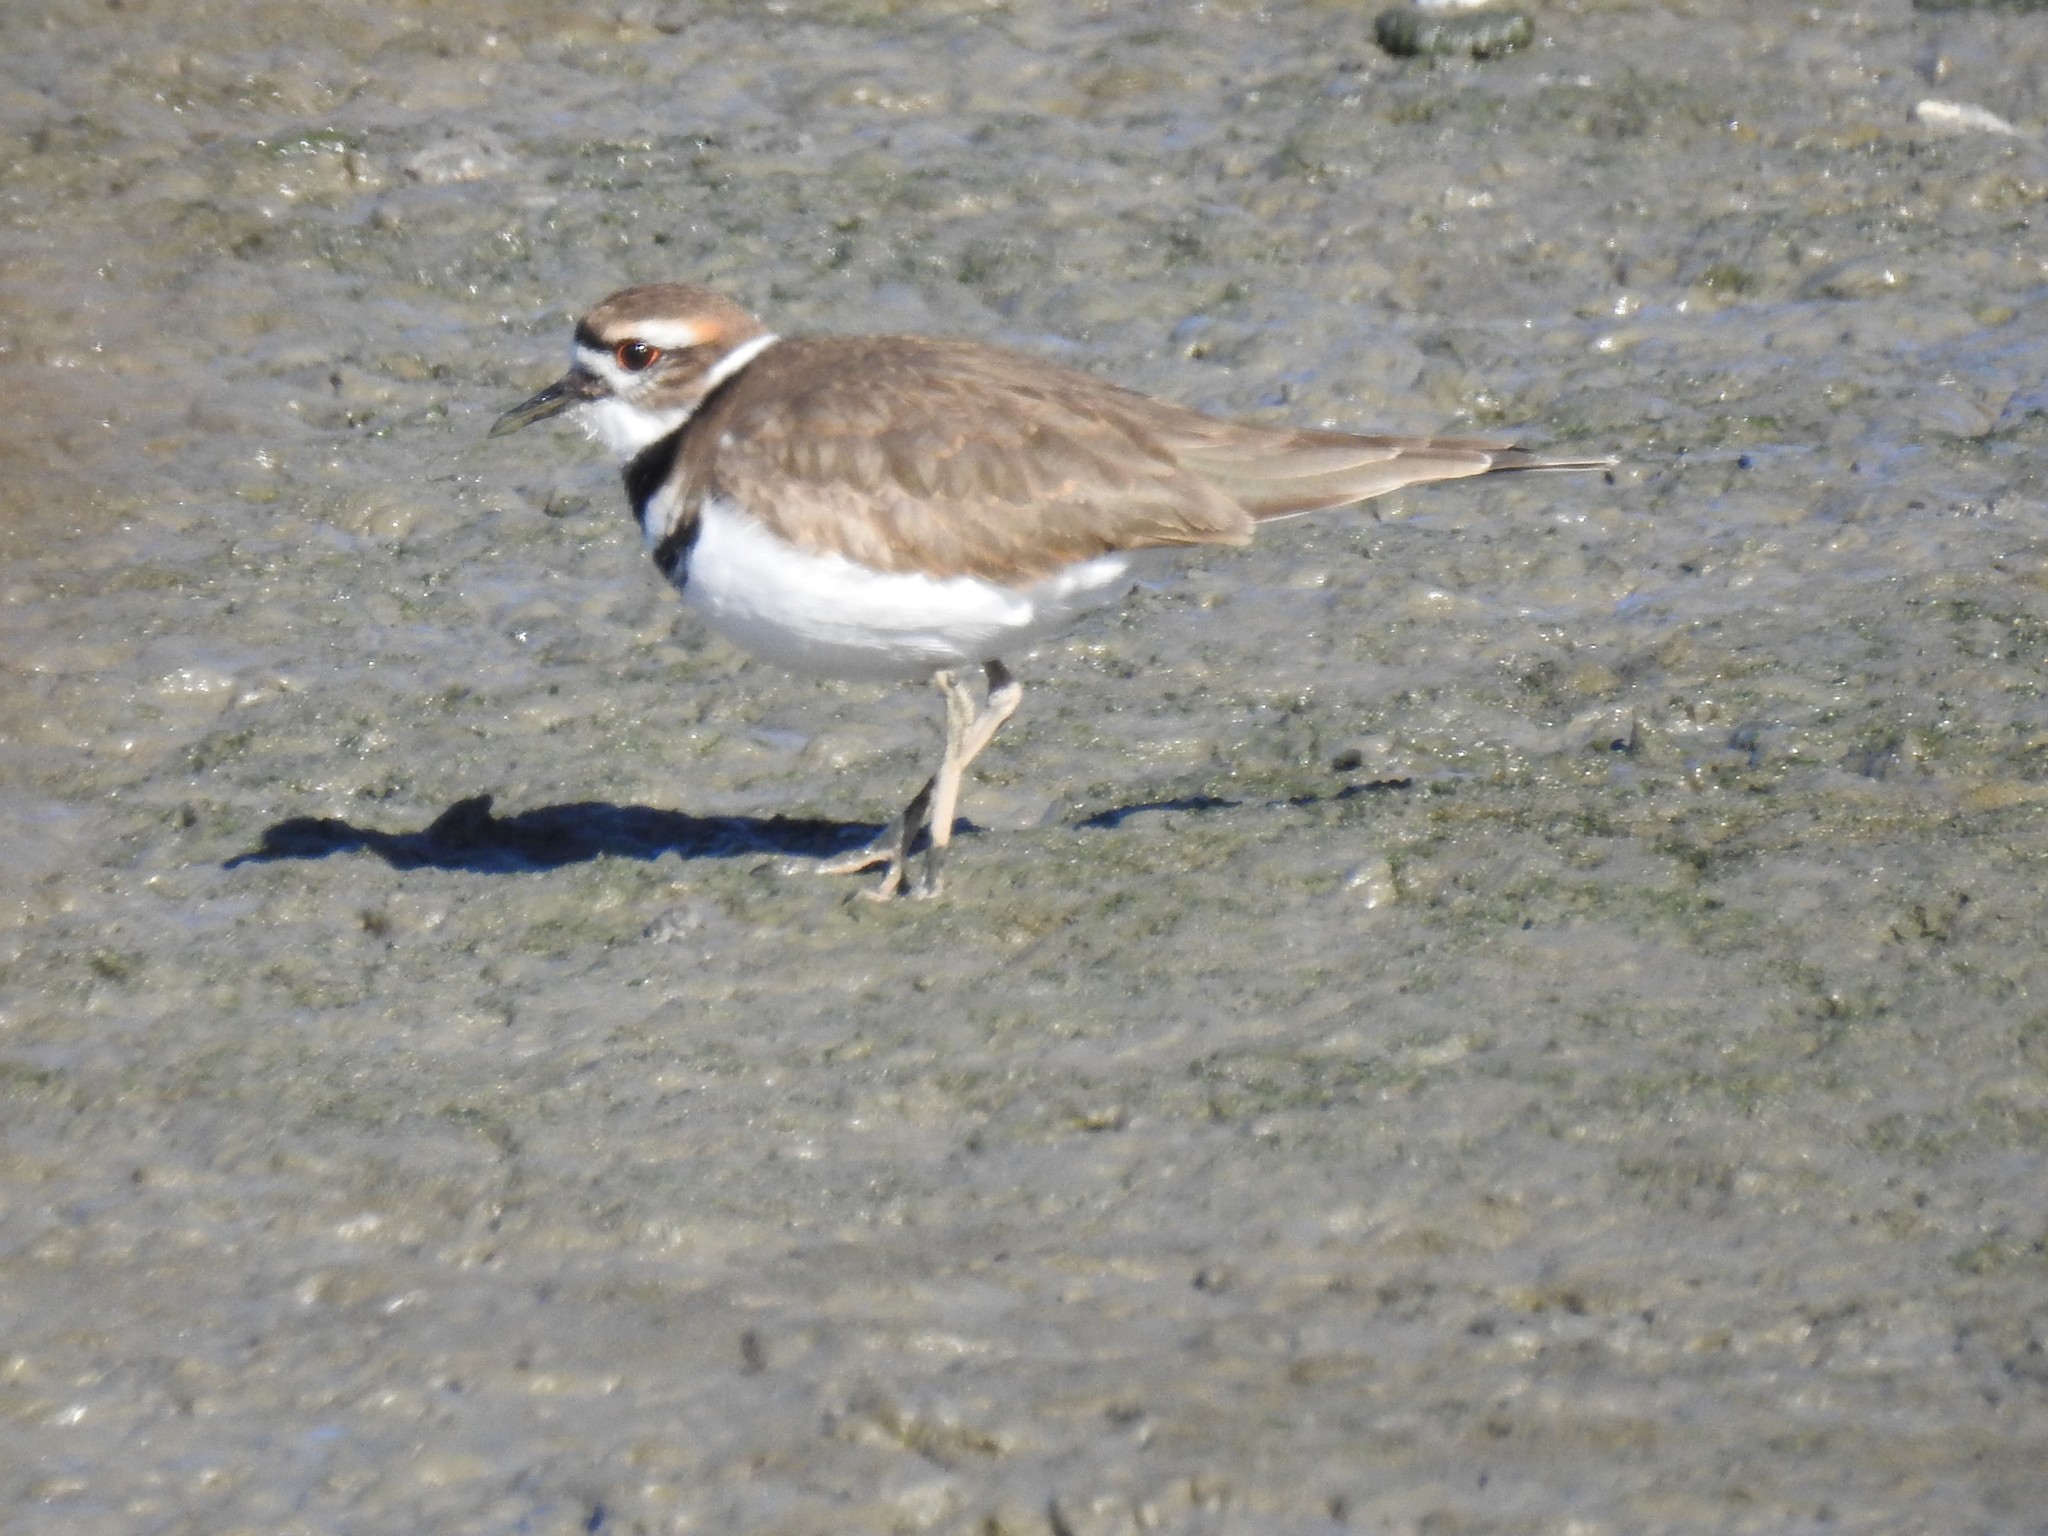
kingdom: Animalia
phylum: Chordata
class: Aves
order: Charadriiformes
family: Charadriidae
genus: Charadrius
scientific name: Charadrius vociferus
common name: Killdeer
